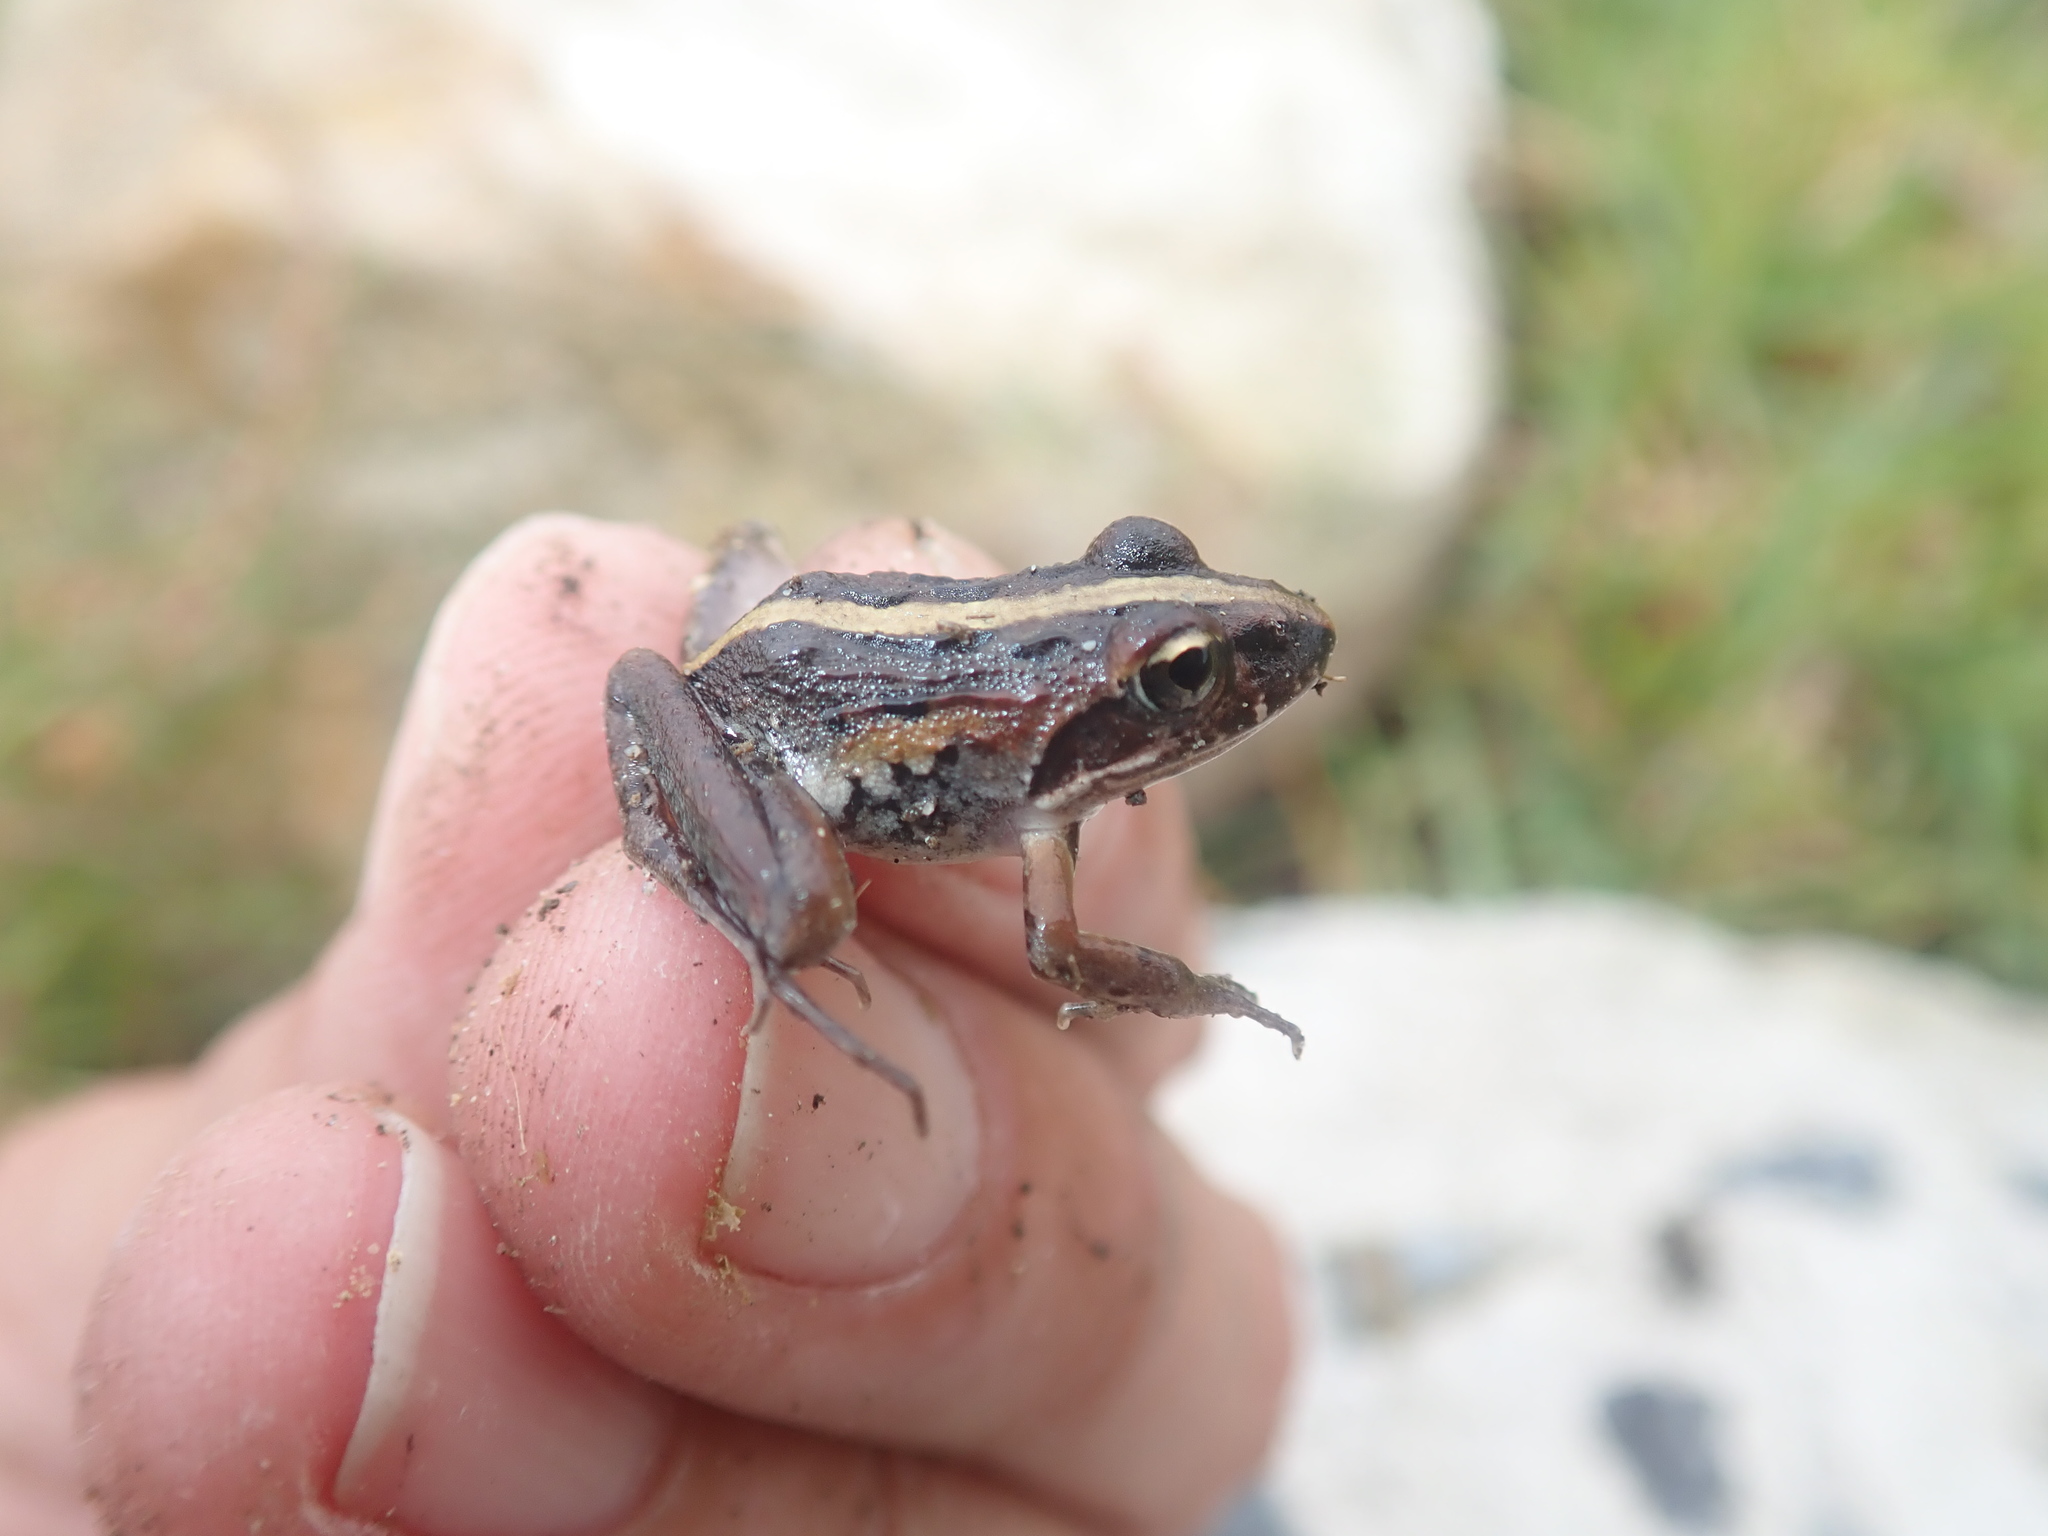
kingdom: Animalia
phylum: Chordata
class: Amphibia
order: Anura
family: Pyxicephalidae
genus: Strongylopus
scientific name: Strongylopus grayii
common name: Gray's stream frog
